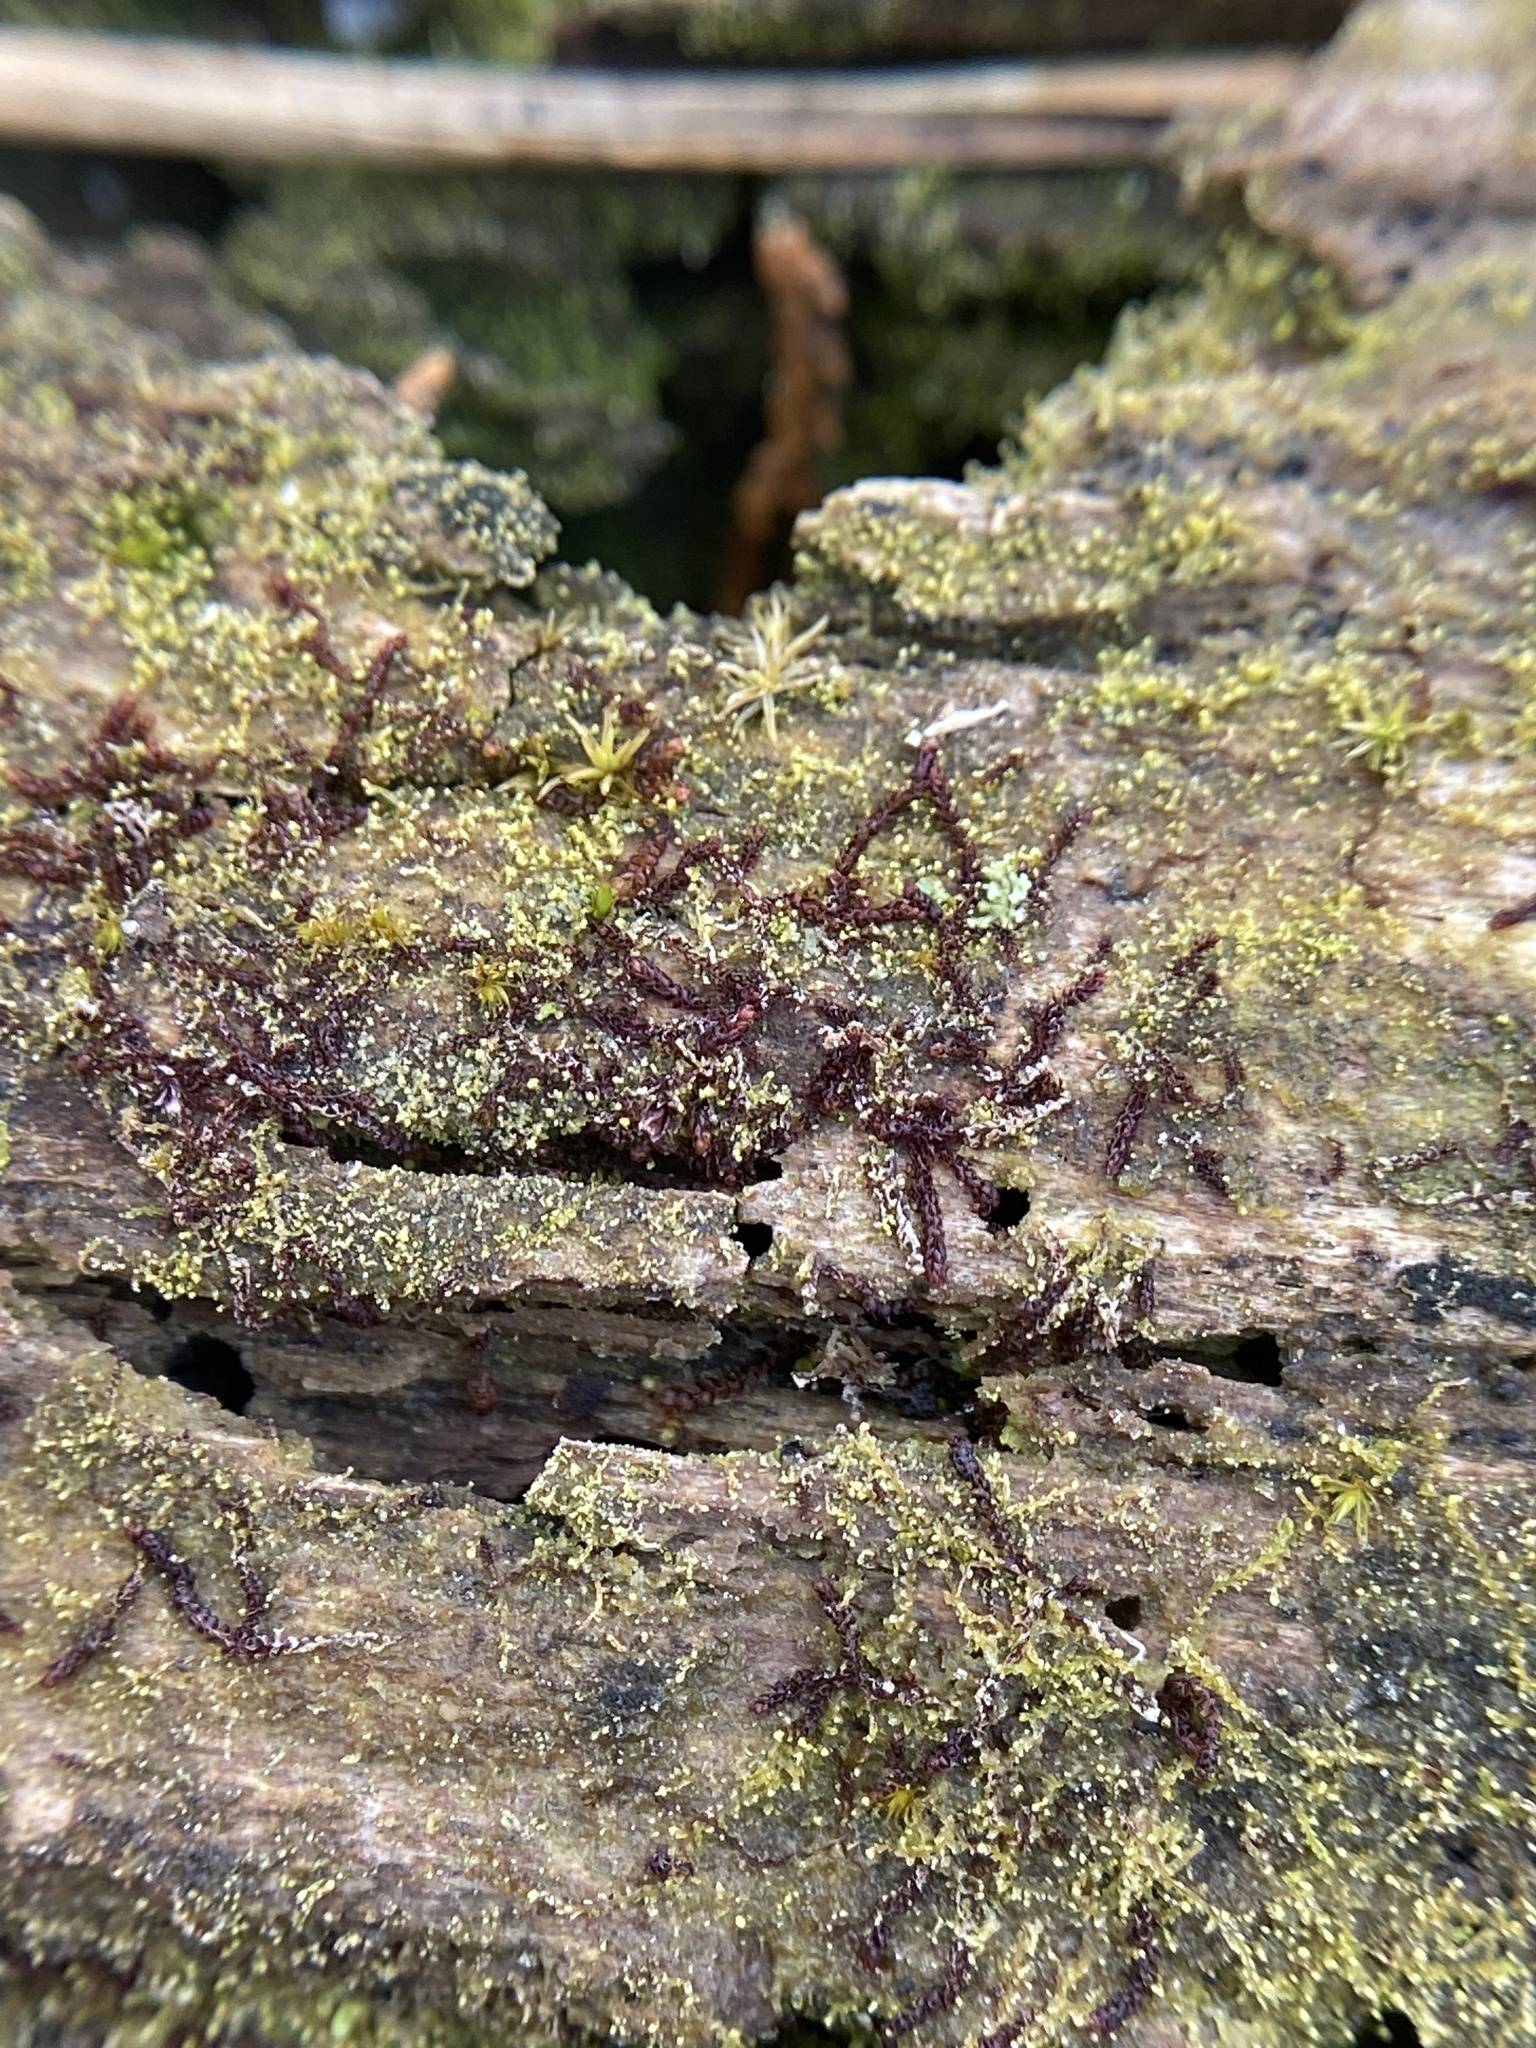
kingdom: Plantae
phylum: Marchantiophyta
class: Jungermanniopsida
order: Jungermanniales
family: Adelanthaceae
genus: Syzygiella
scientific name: Syzygiella autumnalis
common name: Jameson's liverwort
